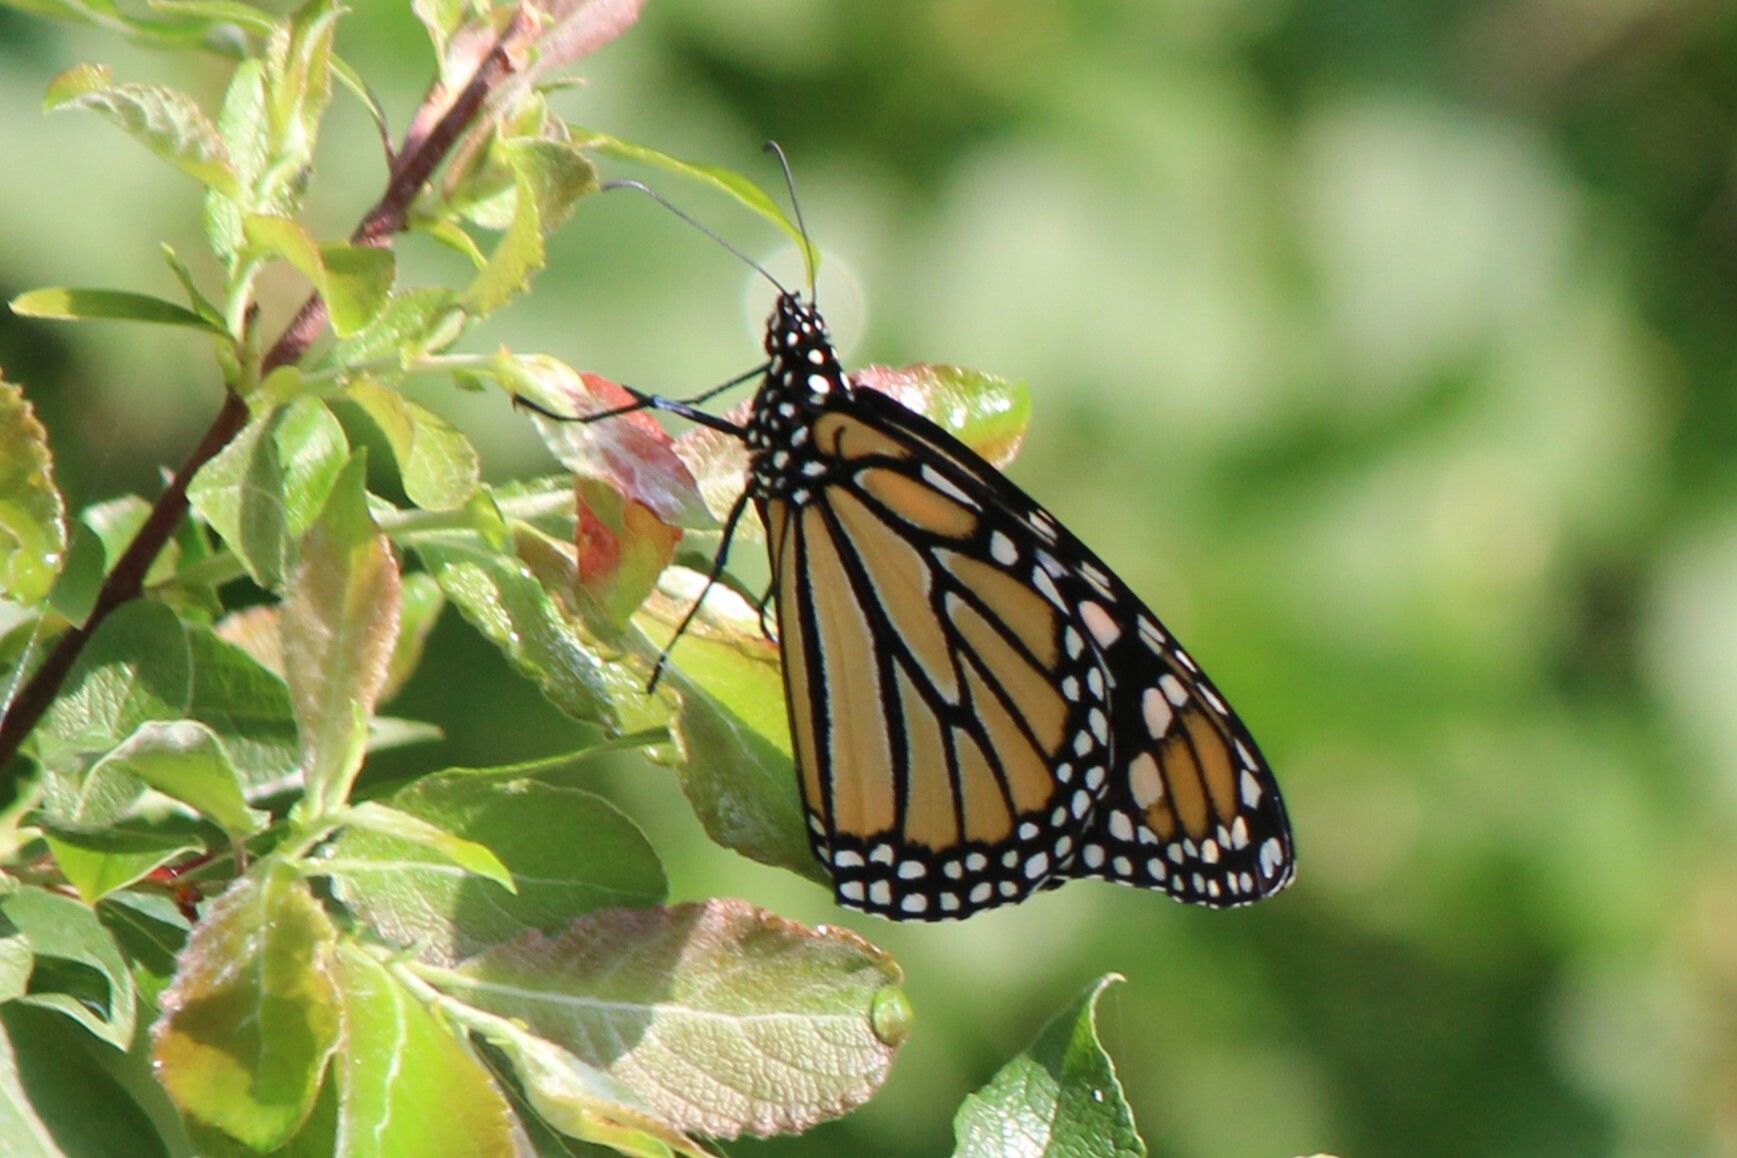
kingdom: Animalia
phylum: Arthropoda
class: Insecta
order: Lepidoptera
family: Nymphalidae
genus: Danaus
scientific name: Danaus plexippus
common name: Monarch
